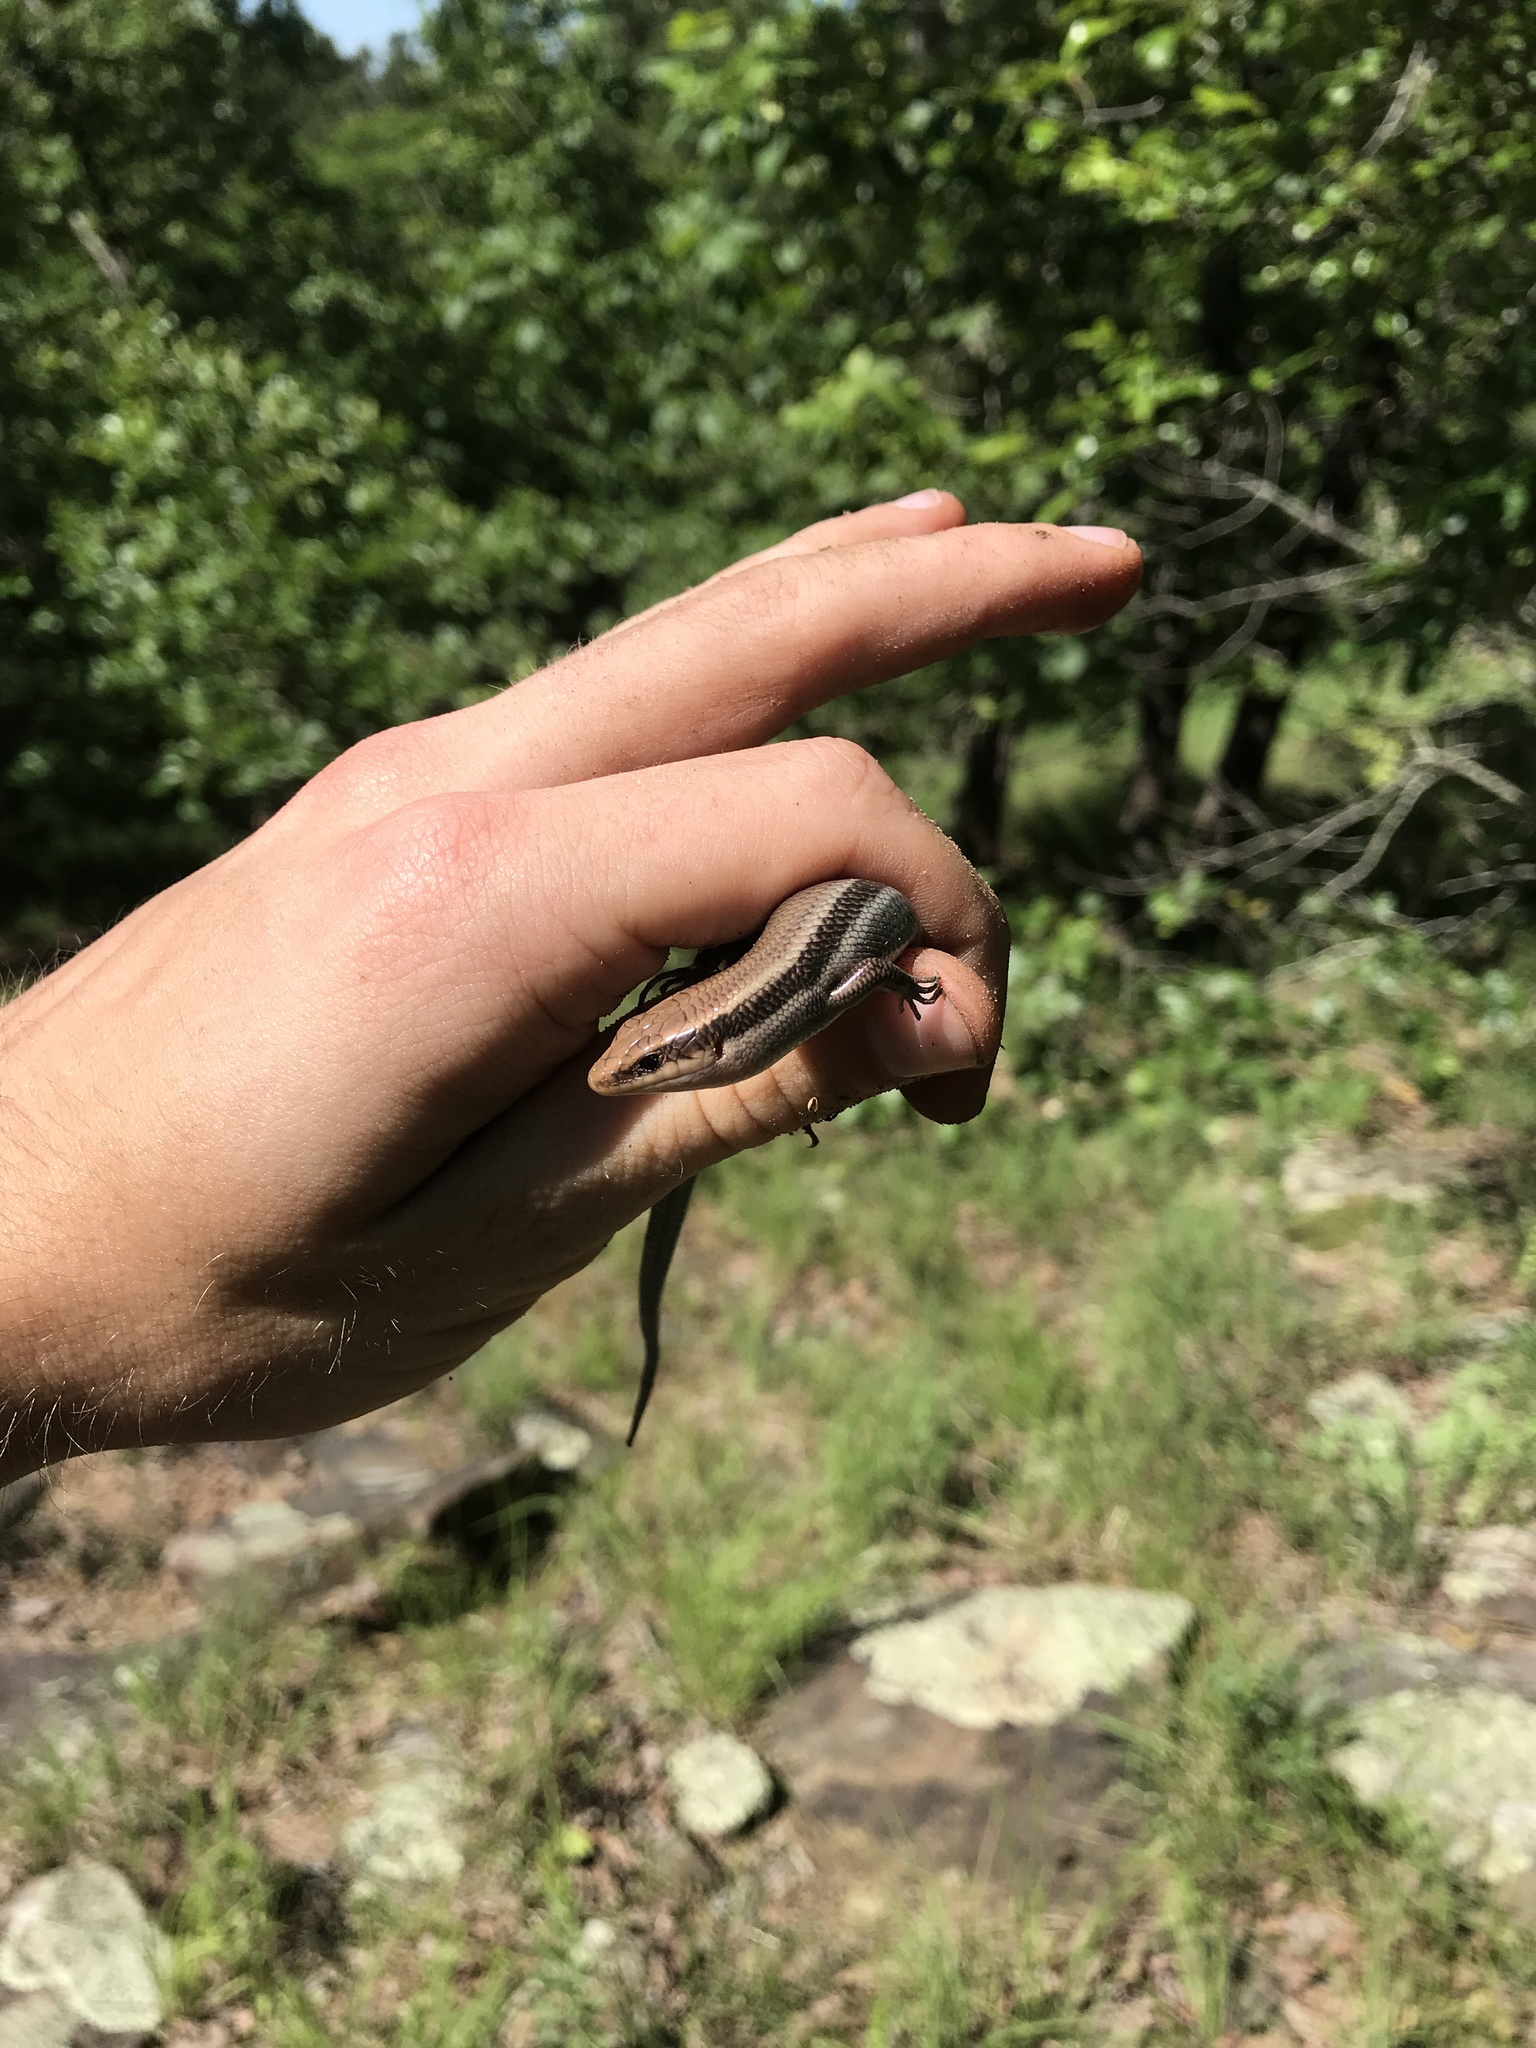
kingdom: Animalia
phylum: Chordata
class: Squamata
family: Scincidae
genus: Plestiodon
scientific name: Plestiodon fasciatus
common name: Five-lined skink
